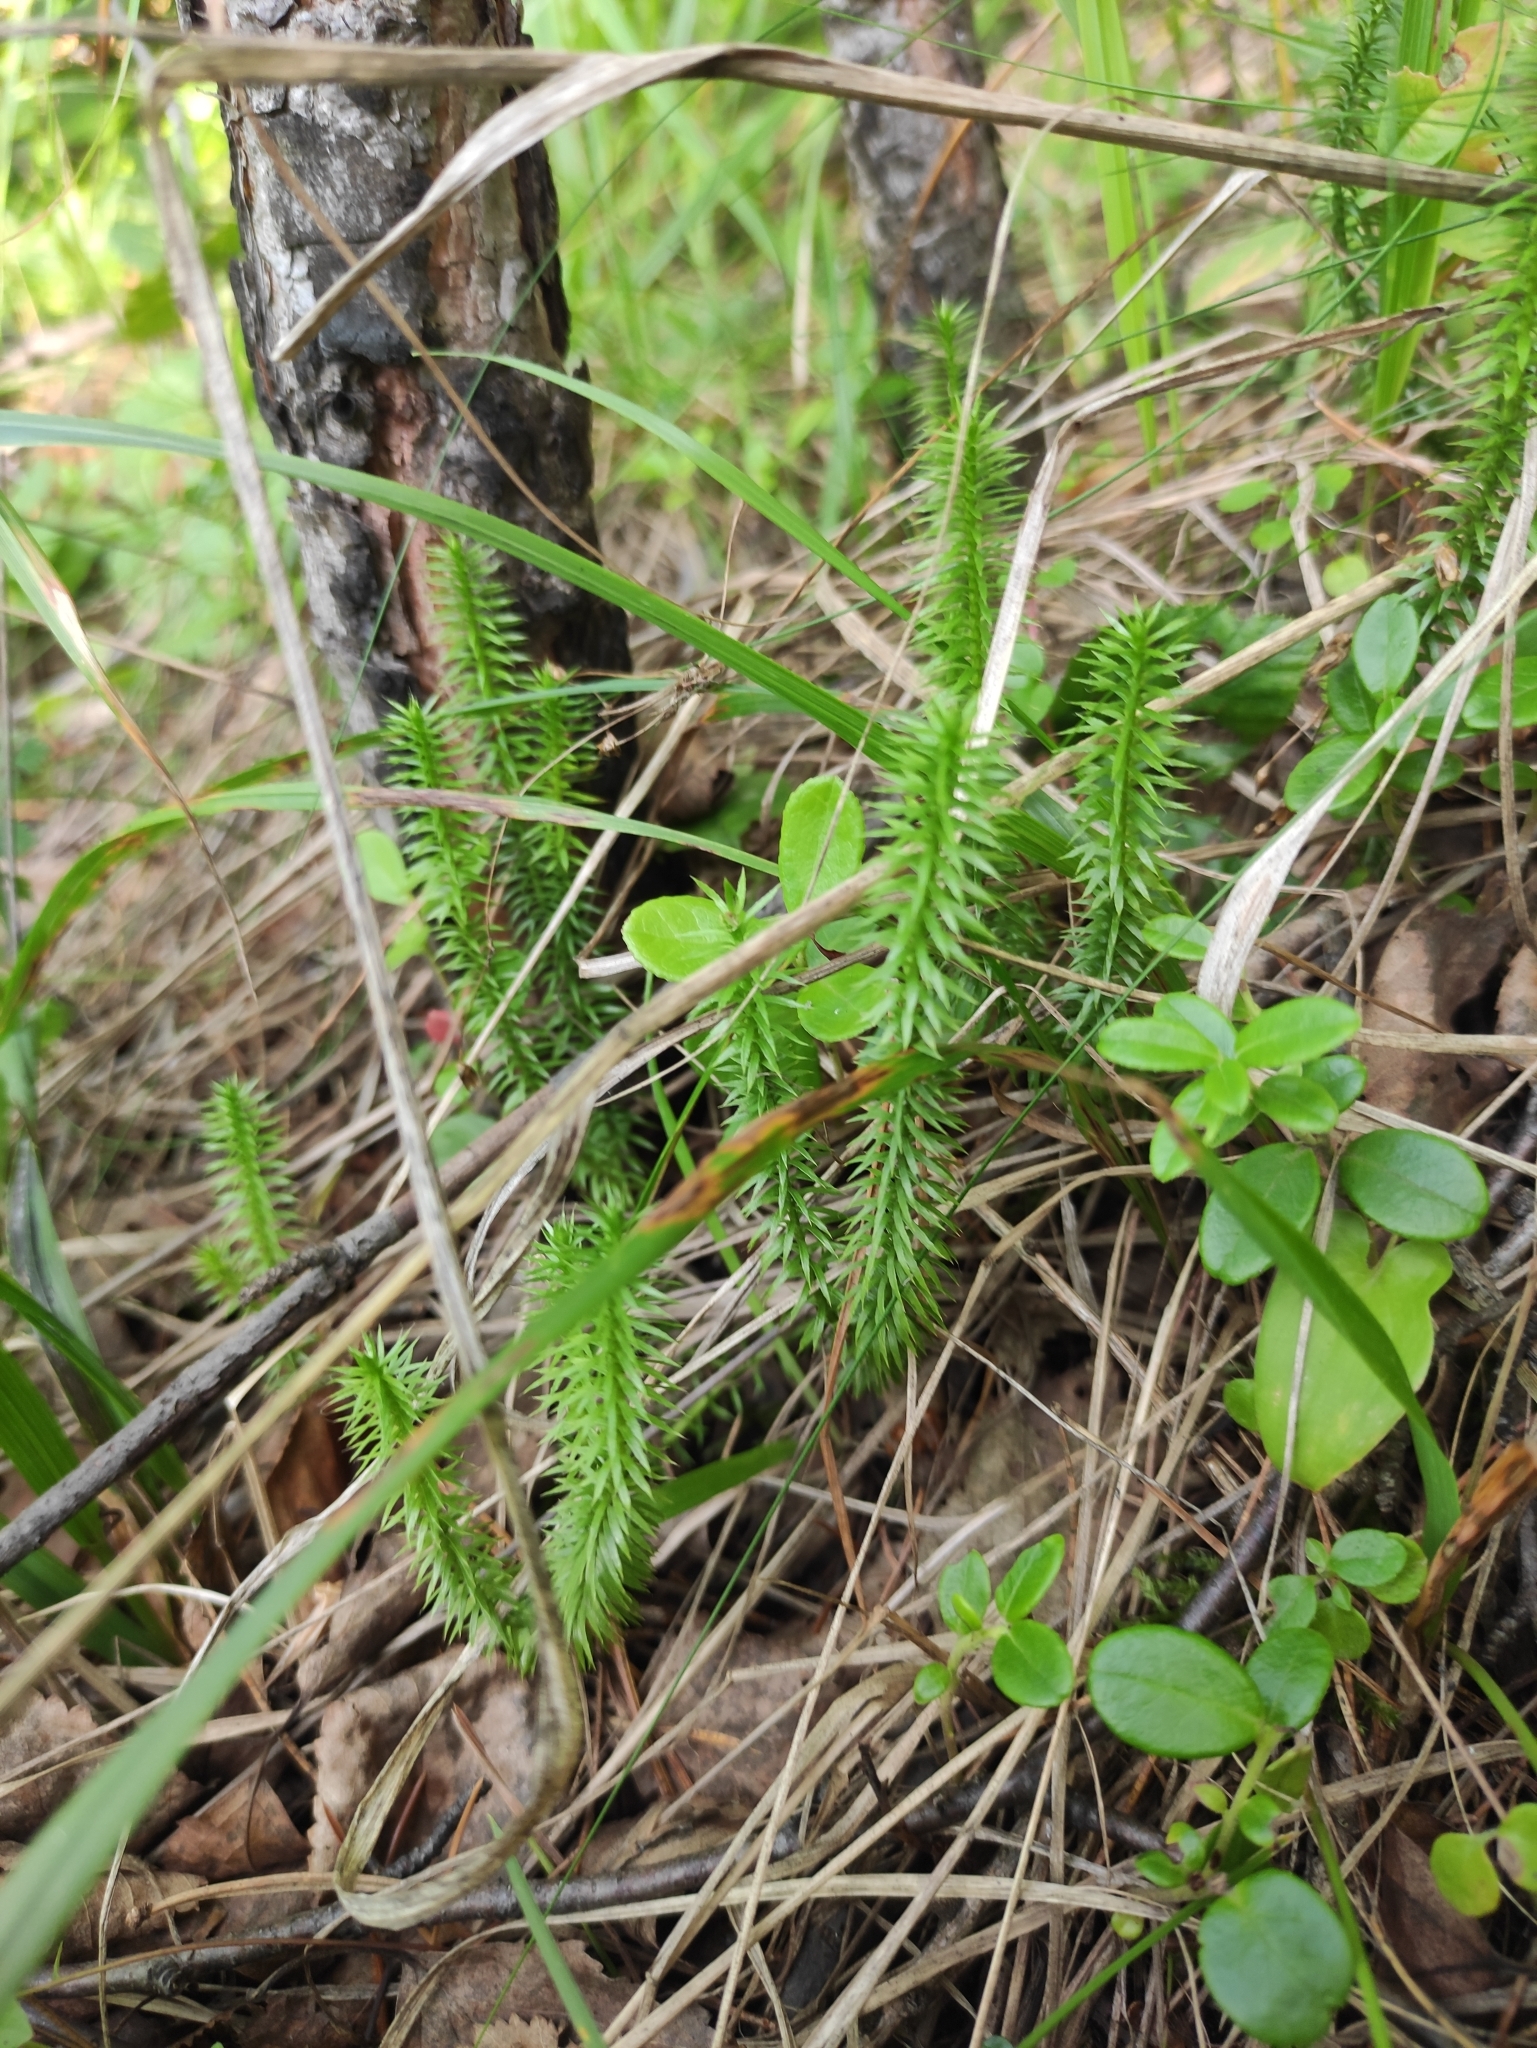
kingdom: Plantae
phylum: Tracheophyta
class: Lycopodiopsida
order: Lycopodiales
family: Lycopodiaceae
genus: Spinulum
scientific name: Spinulum annotinum
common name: Interrupted club-moss
